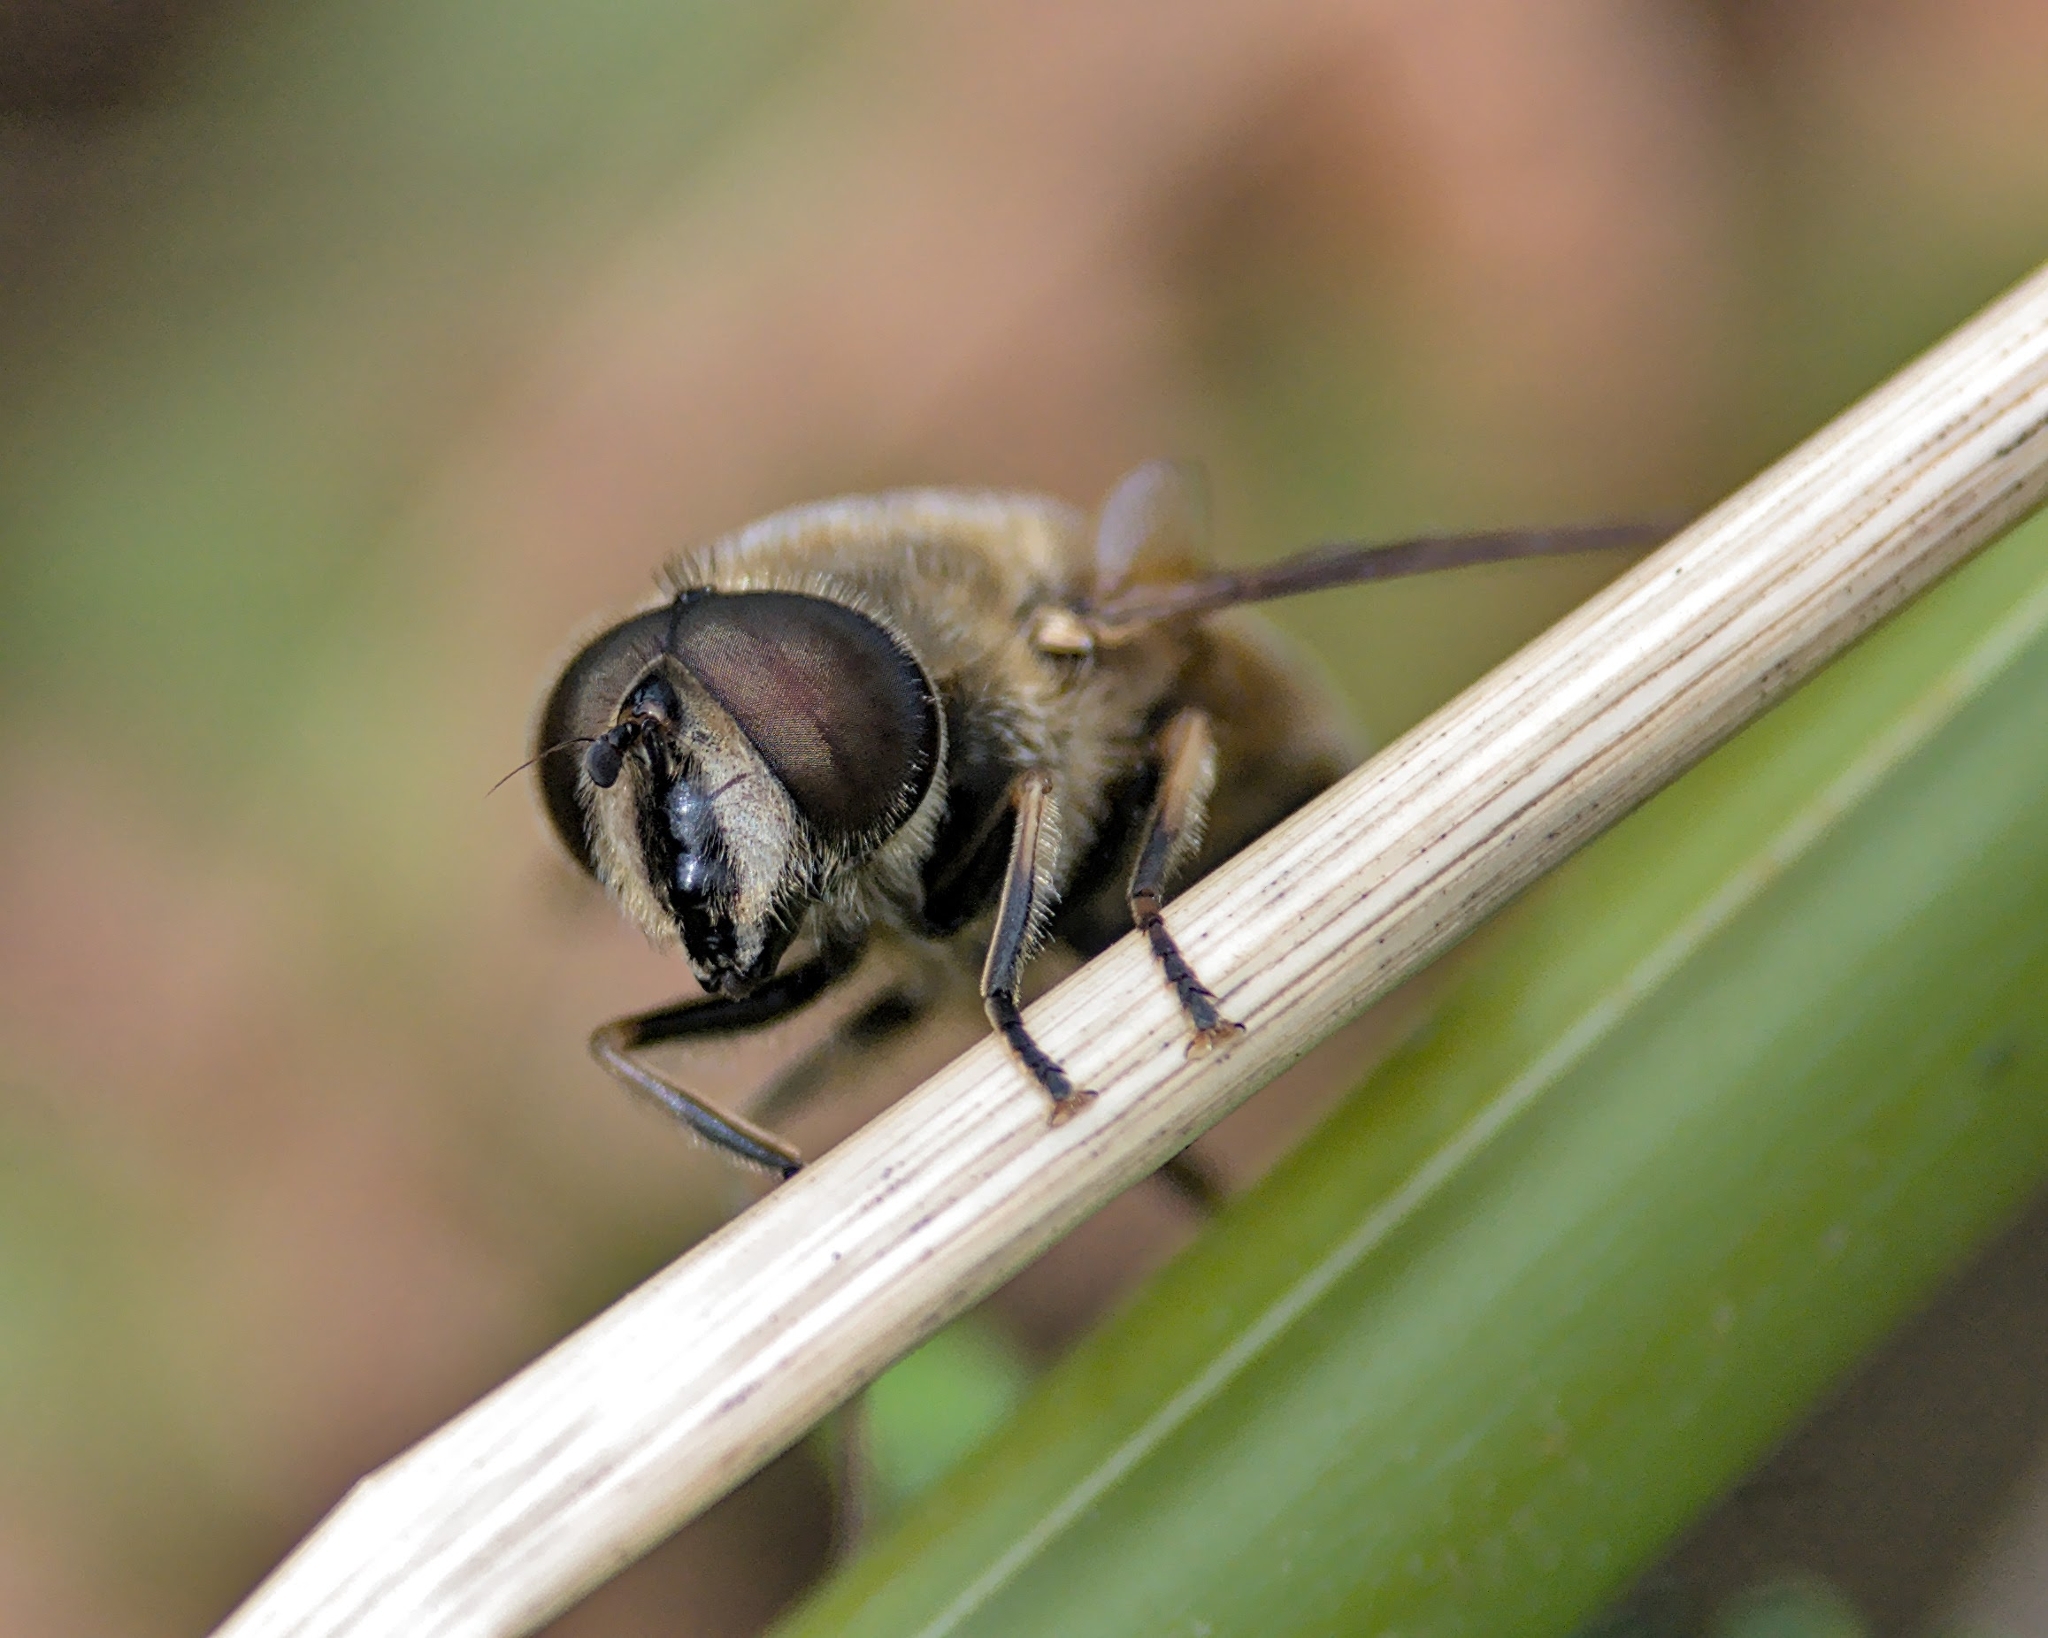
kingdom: Animalia
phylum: Arthropoda
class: Insecta
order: Diptera
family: Syrphidae
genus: Eristalis
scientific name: Eristalis tenax
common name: Drone fly
